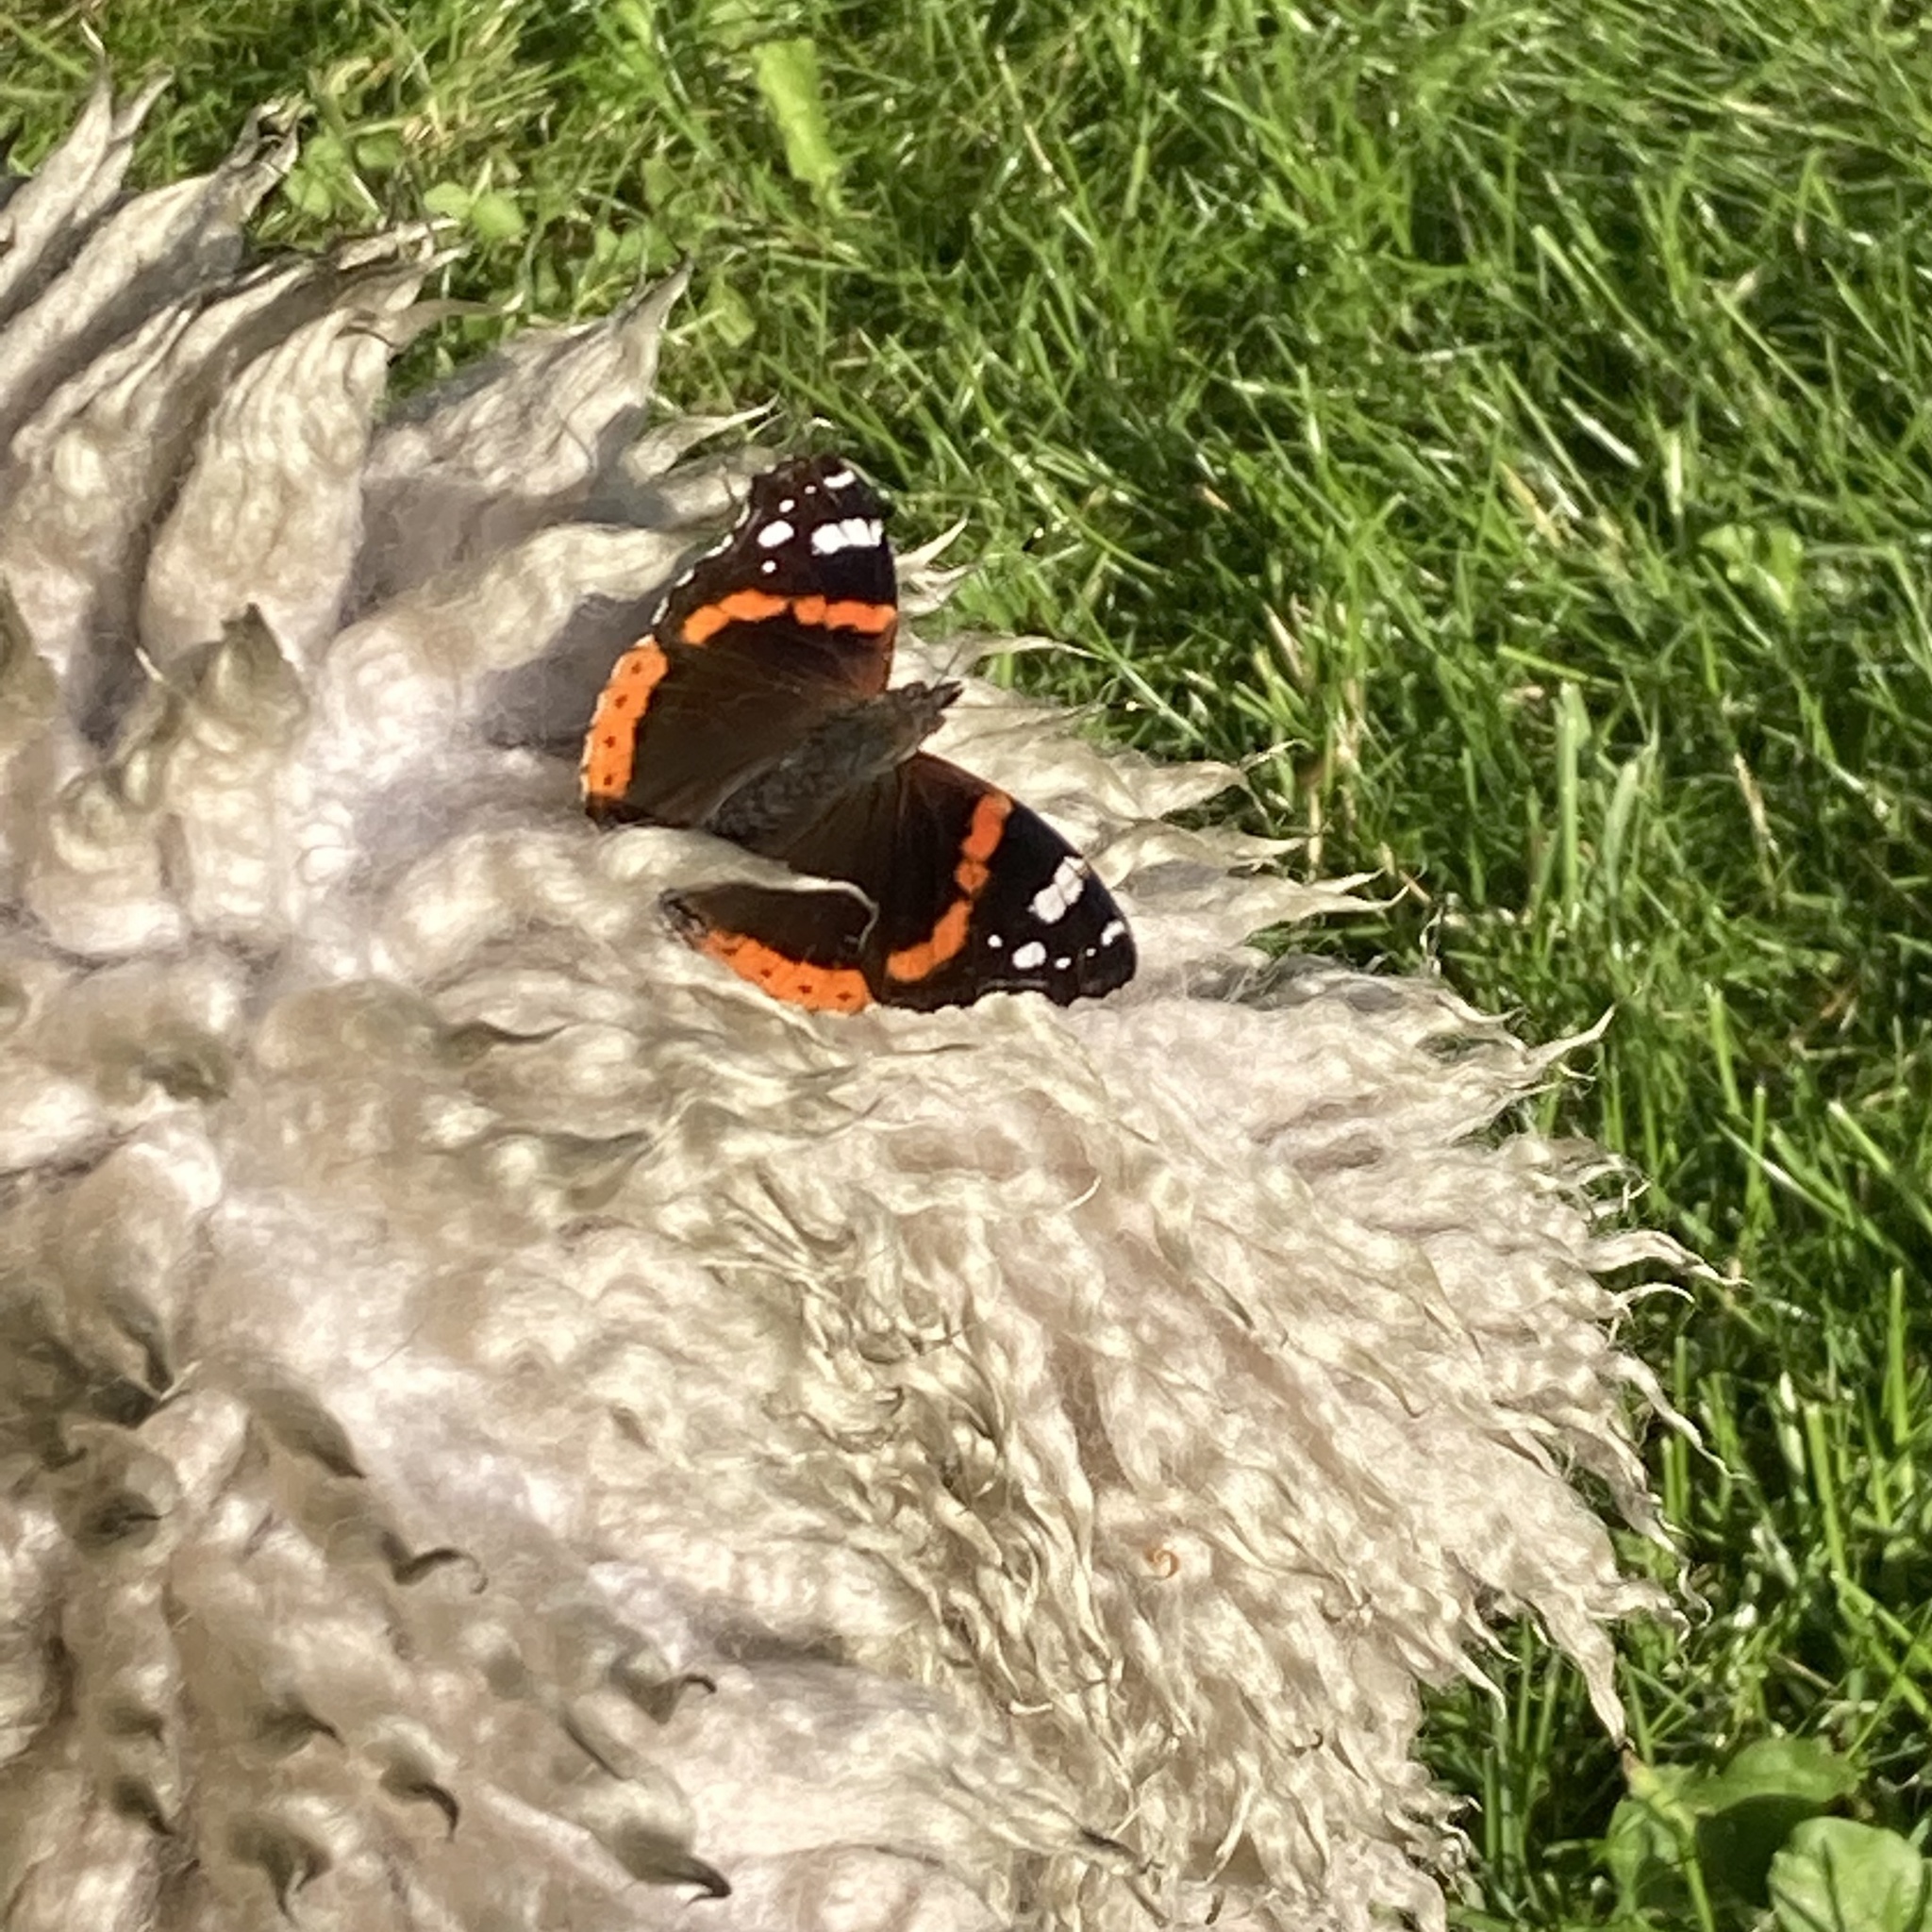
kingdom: Animalia
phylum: Arthropoda
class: Insecta
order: Lepidoptera
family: Nymphalidae
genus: Vanessa
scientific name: Vanessa atalanta
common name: Red admiral
